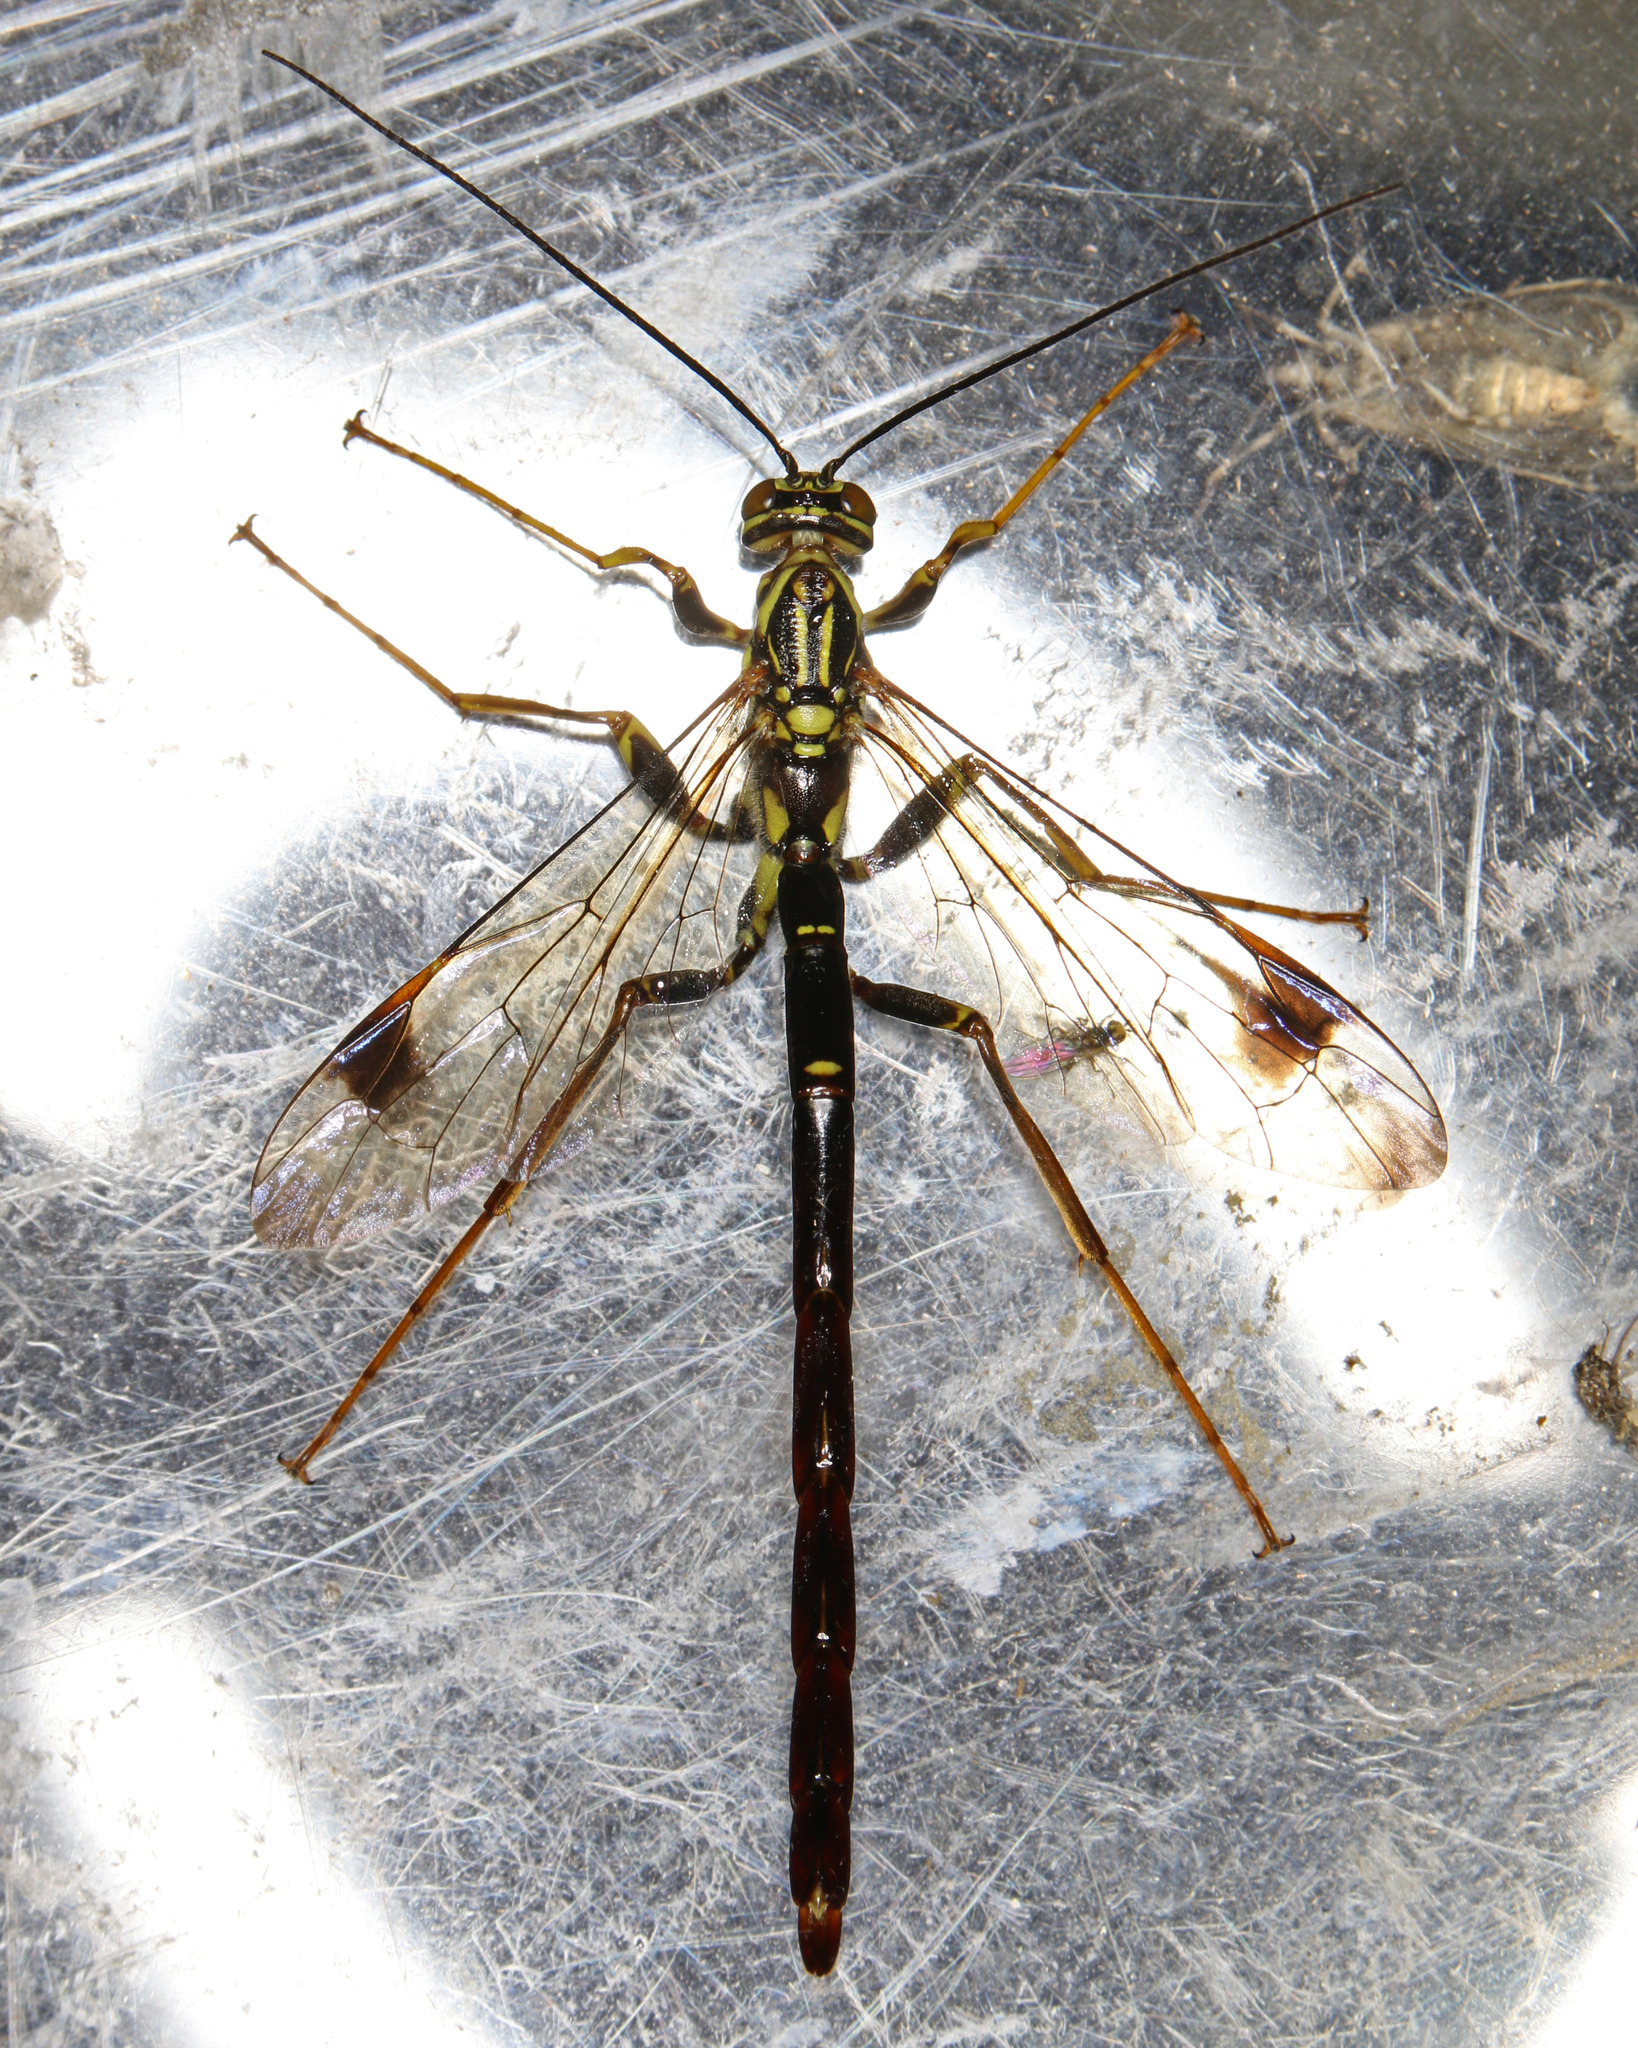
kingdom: Animalia
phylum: Arthropoda
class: Insecta
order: Hymenoptera
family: Ichneumonidae
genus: Megarhyssa
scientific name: Megarhyssa macrura
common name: Long-tailed giant ichneumonid wasp
